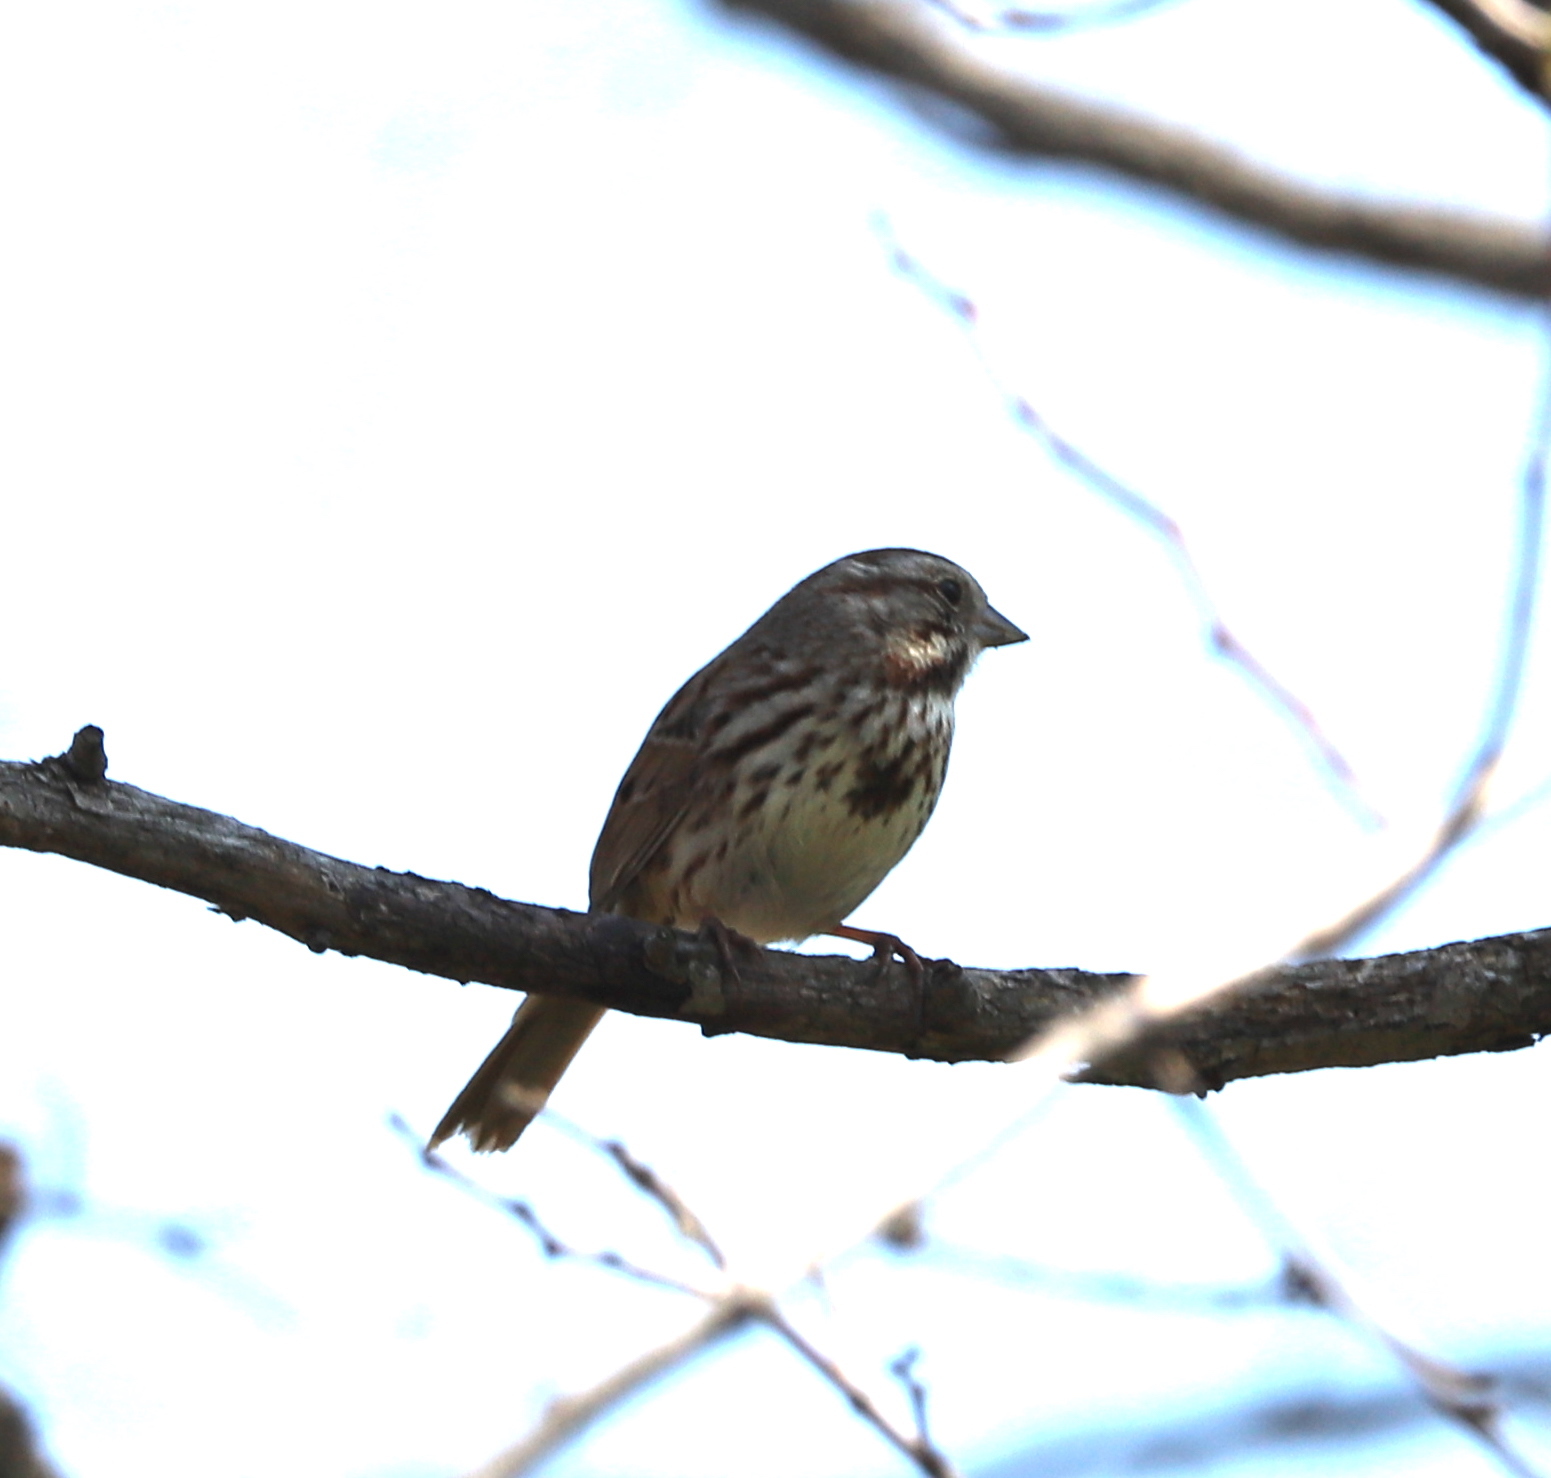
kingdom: Animalia
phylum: Chordata
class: Aves
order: Passeriformes
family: Passerellidae
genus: Melospiza
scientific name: Melospiza melodia
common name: Song sparrow
